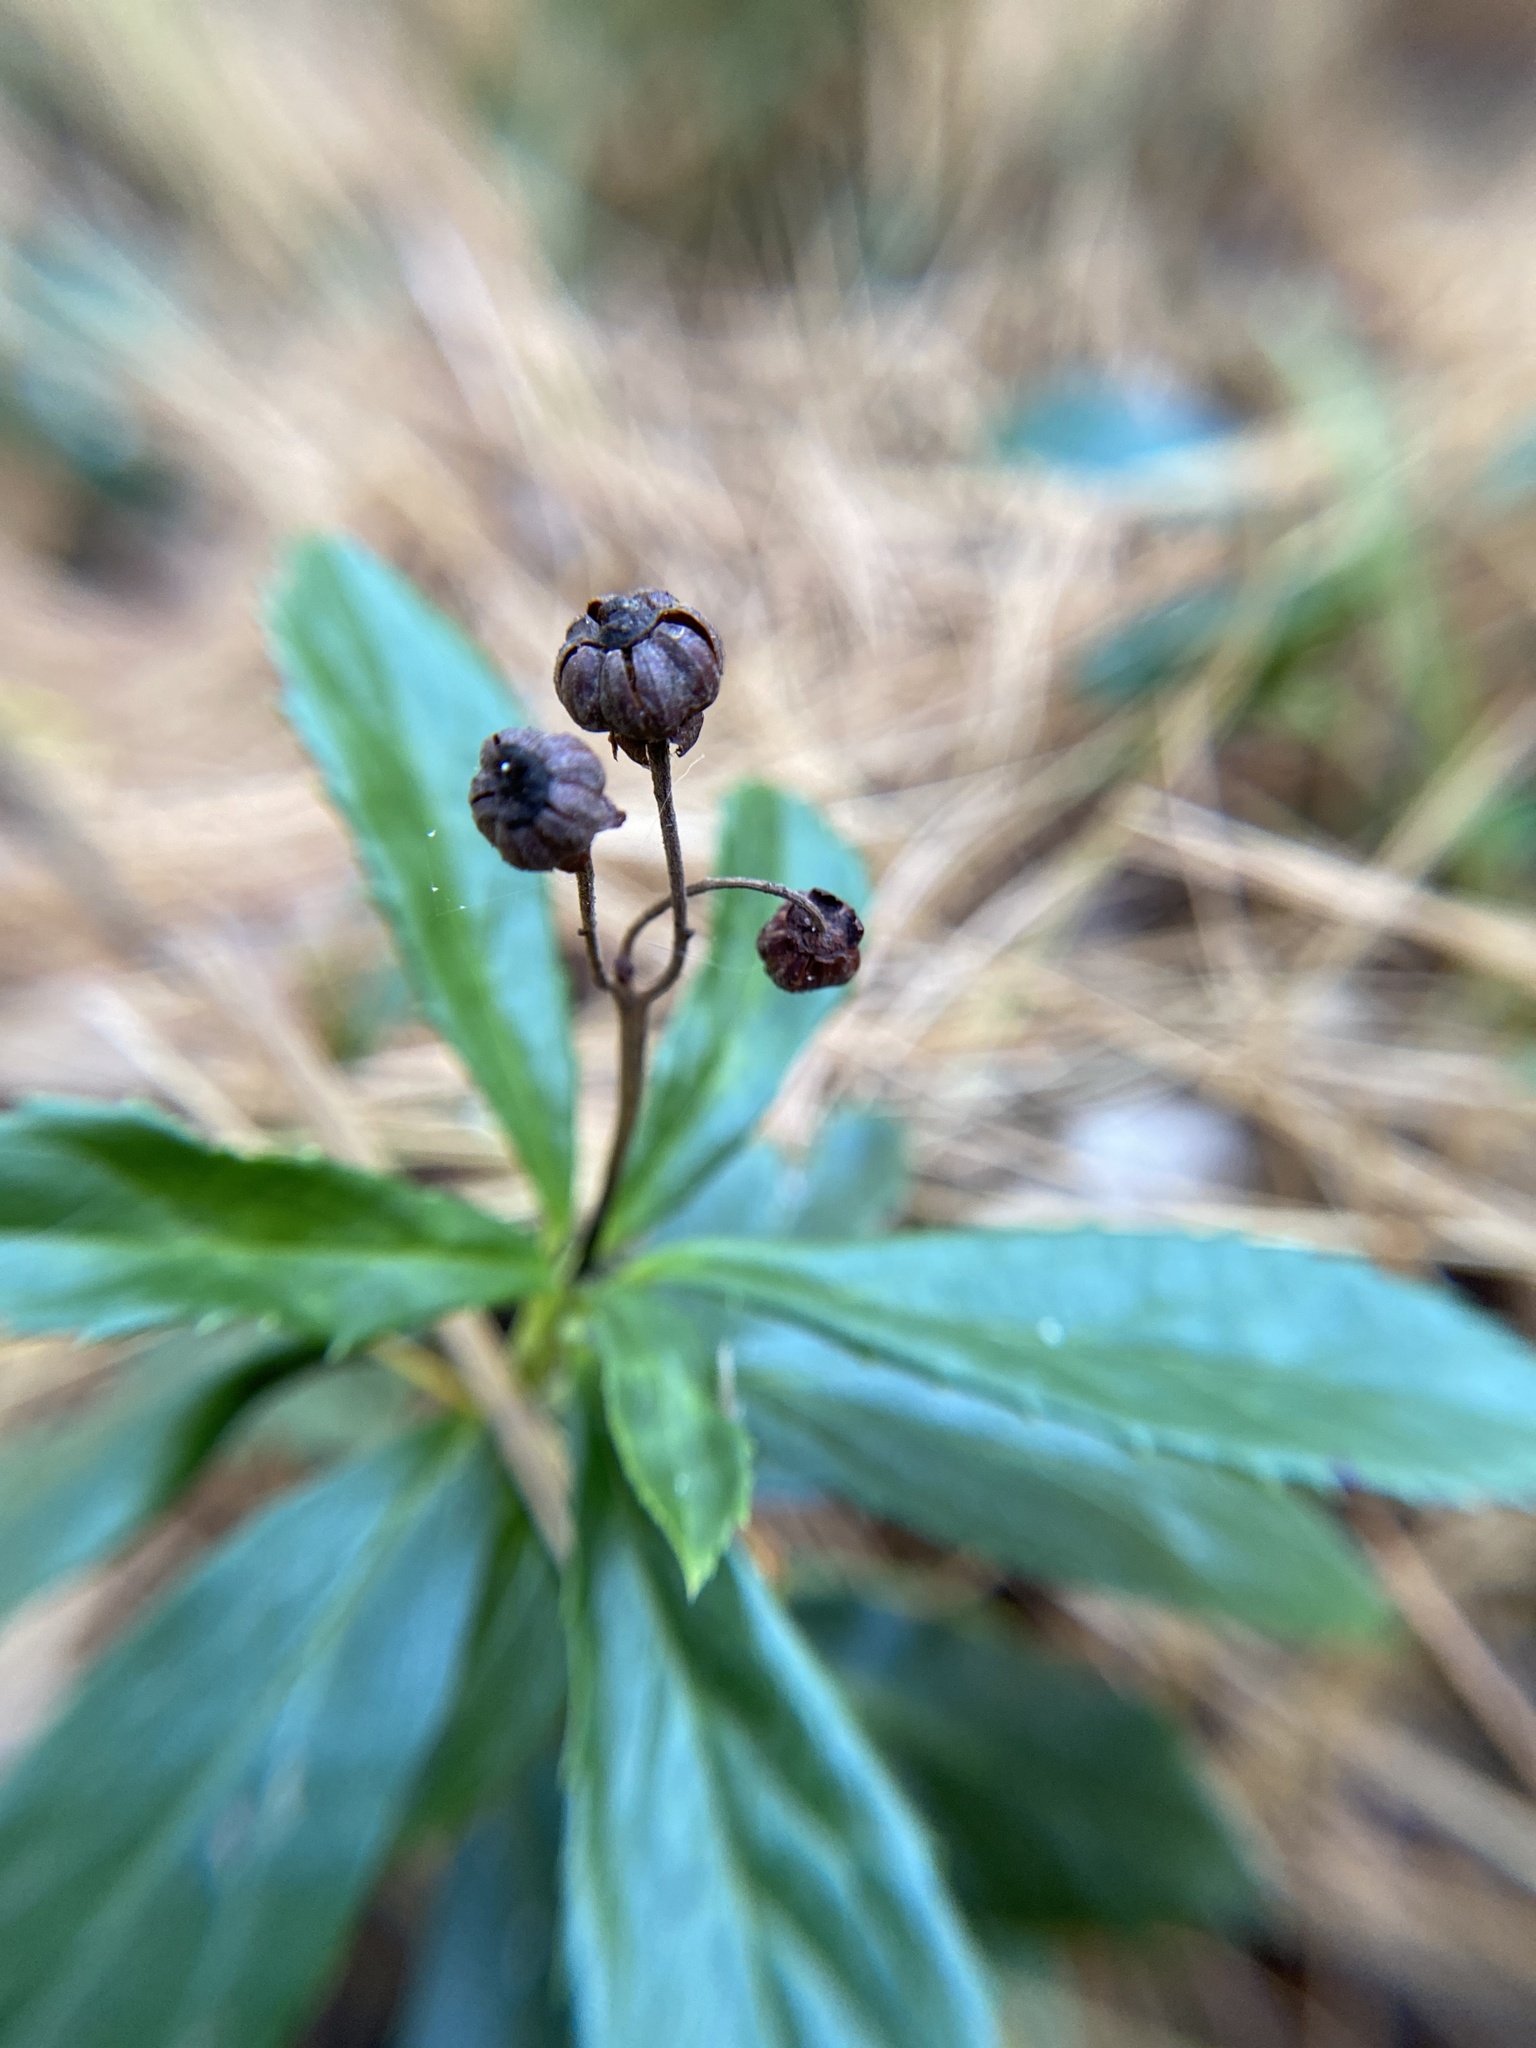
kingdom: Plantae
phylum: Tracheophyta
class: Magnoliopsida
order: Ericales
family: Ericaceae
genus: Chimaphila
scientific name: Chimaphila umbellata
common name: Pipsissewa
